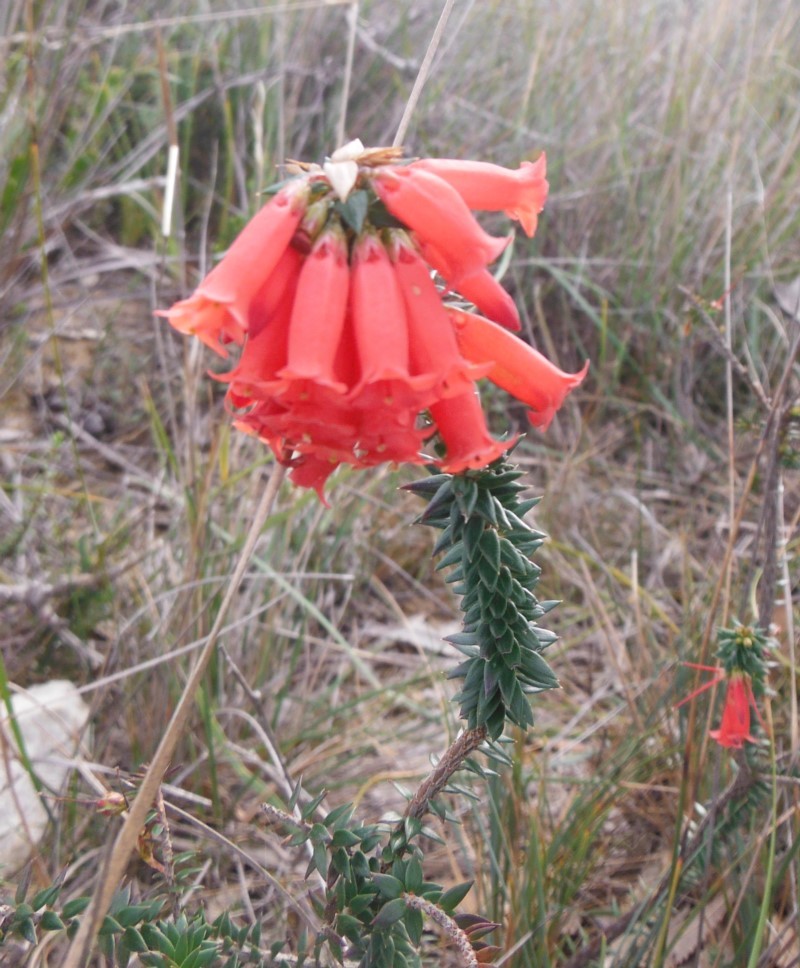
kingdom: Plantae
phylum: Tracheophyta
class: Magnoliopsida
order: Ericales
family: Ericaceae
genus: Epacris
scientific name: Epacris impressa
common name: Common-heath
